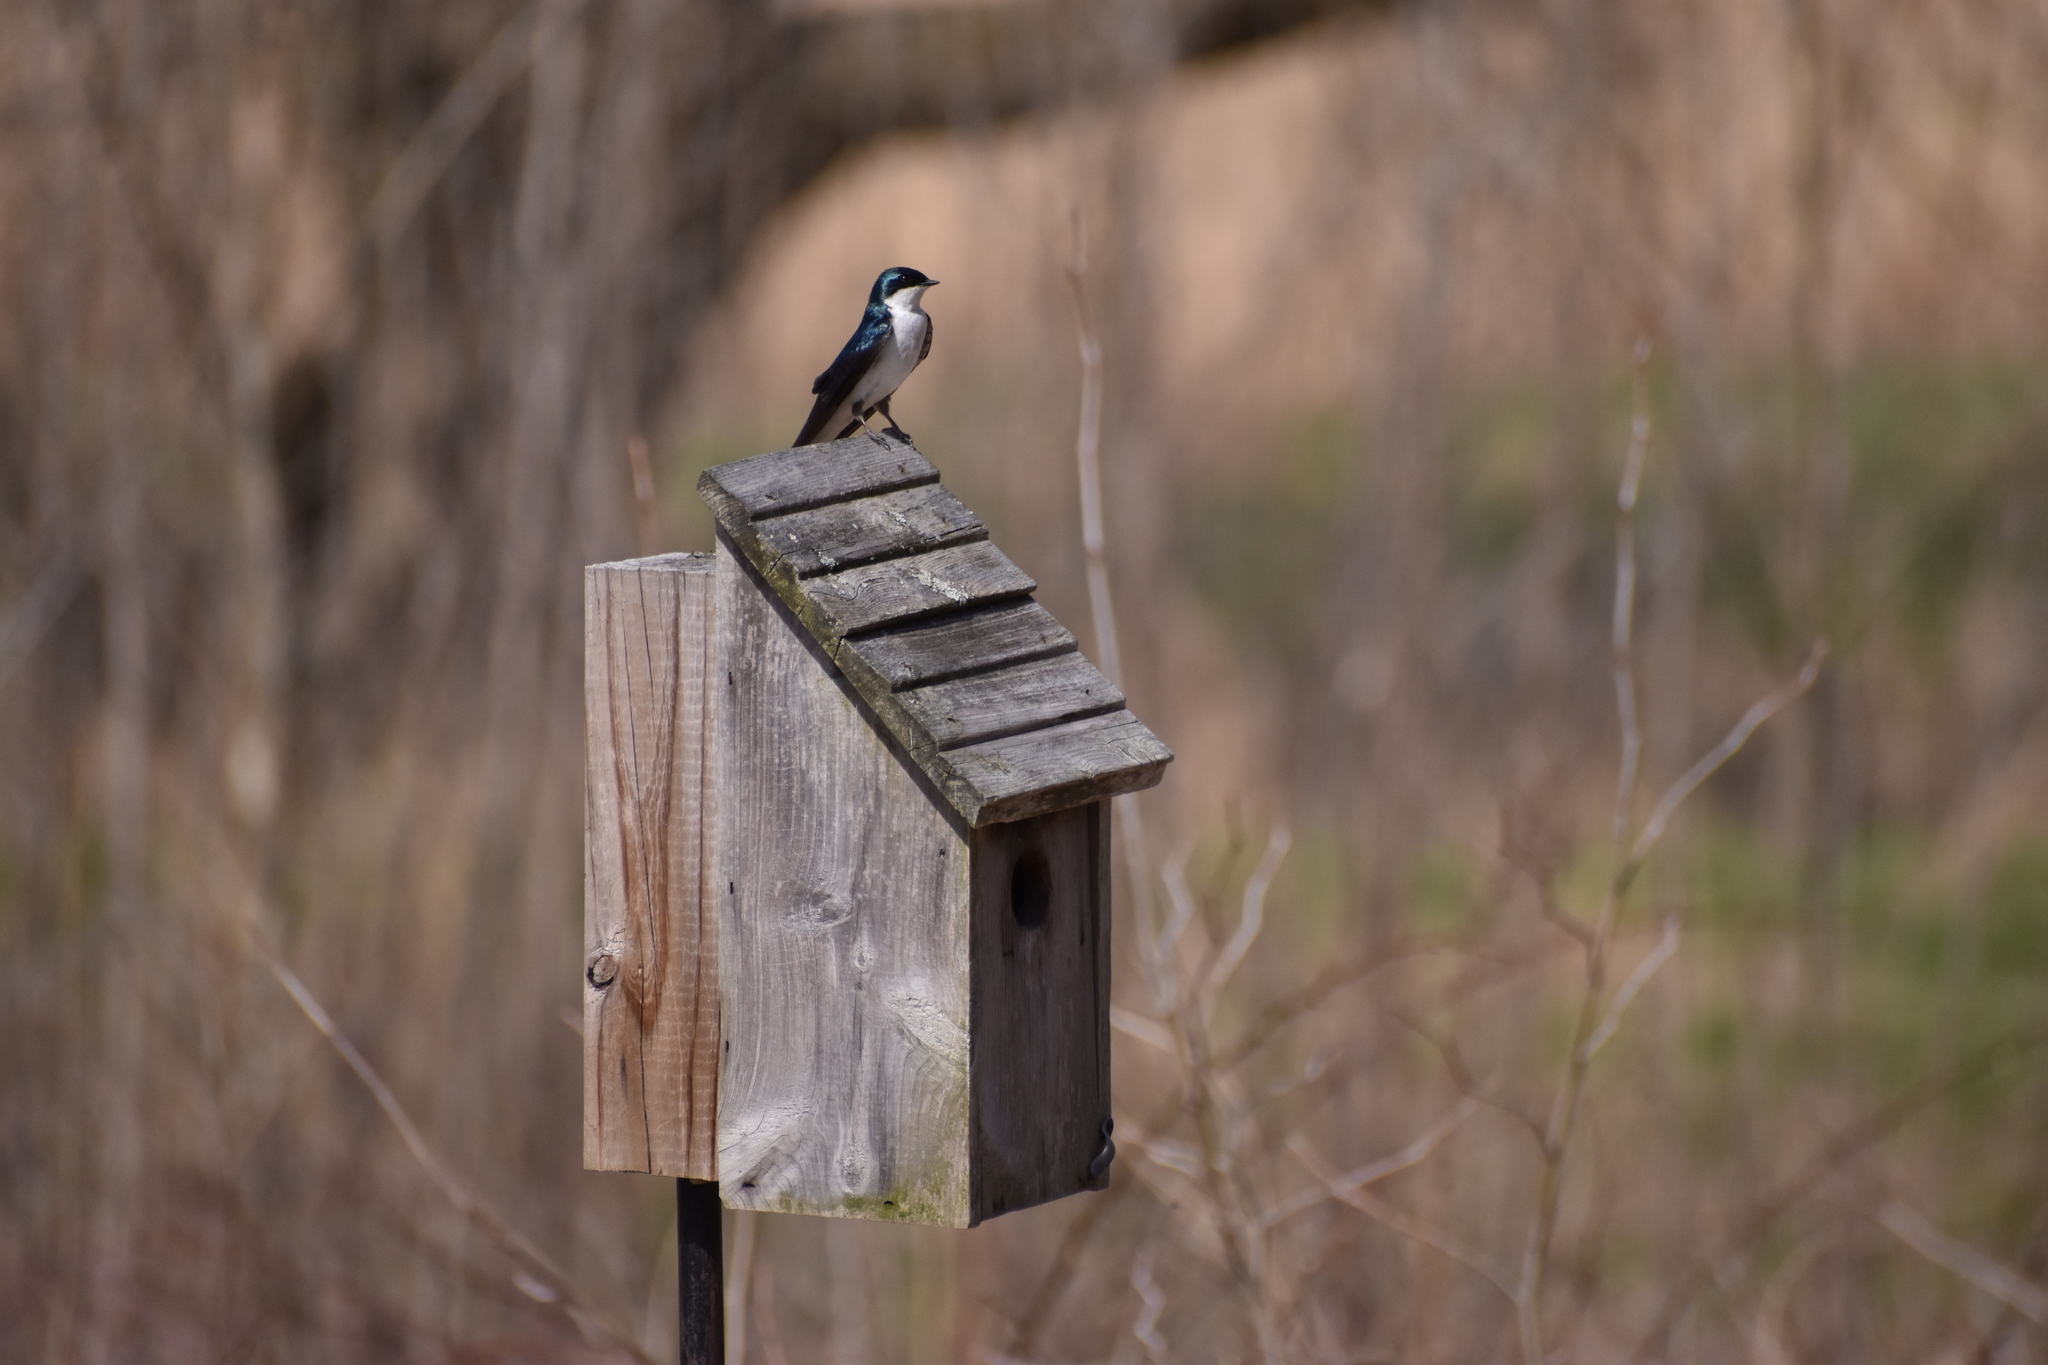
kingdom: Animalia
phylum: Chordata
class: Aves
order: Passeriformes
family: Hirundinidae
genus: Tachycineta
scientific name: Tachycineta bicolor
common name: Tree swallow
